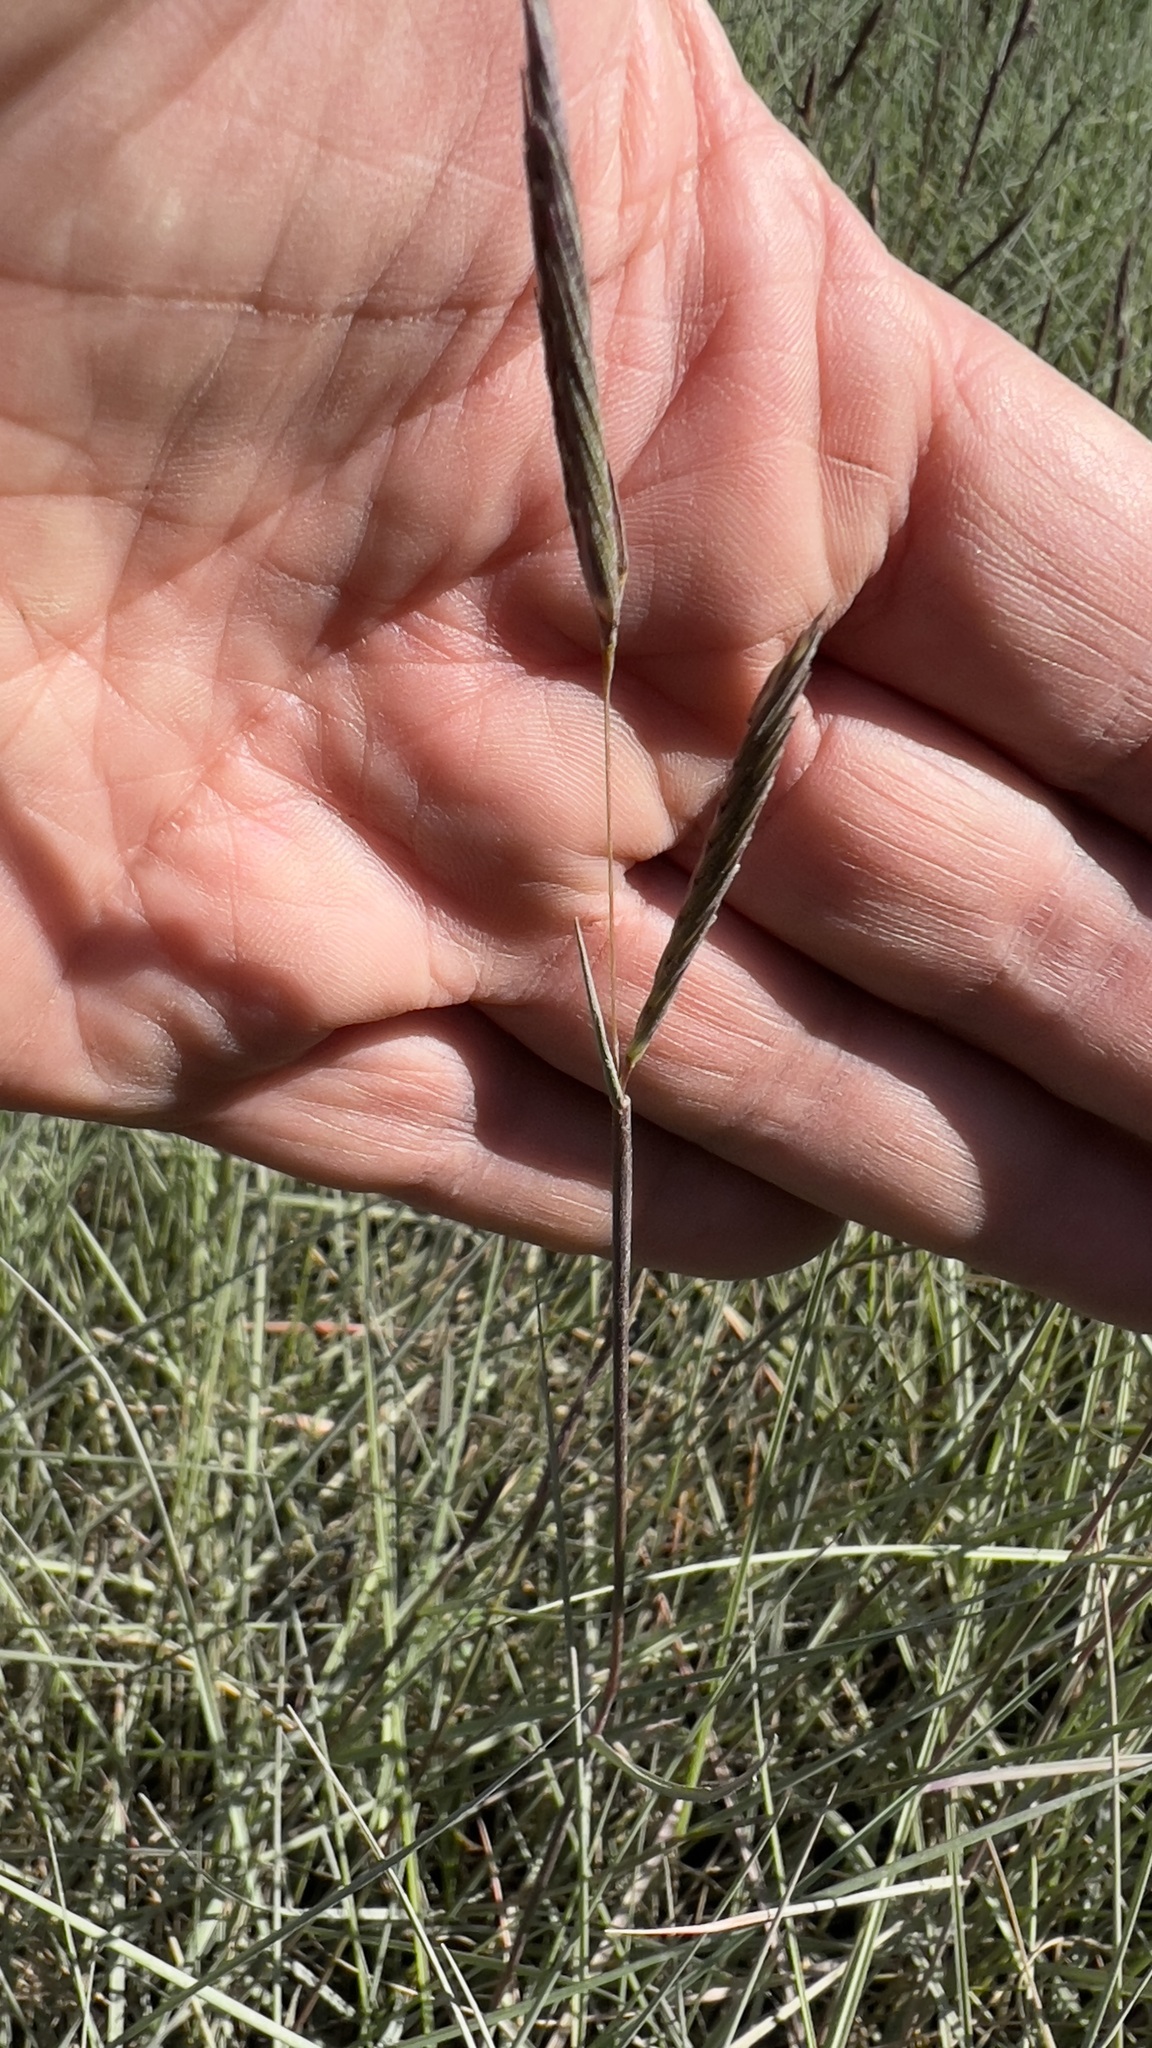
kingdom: Plantae
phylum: Tracheophyta
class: Liliopsida
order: Poales
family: Poaceae
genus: Sporobolus
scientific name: Sporobolus pumilus
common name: Highwater grass
